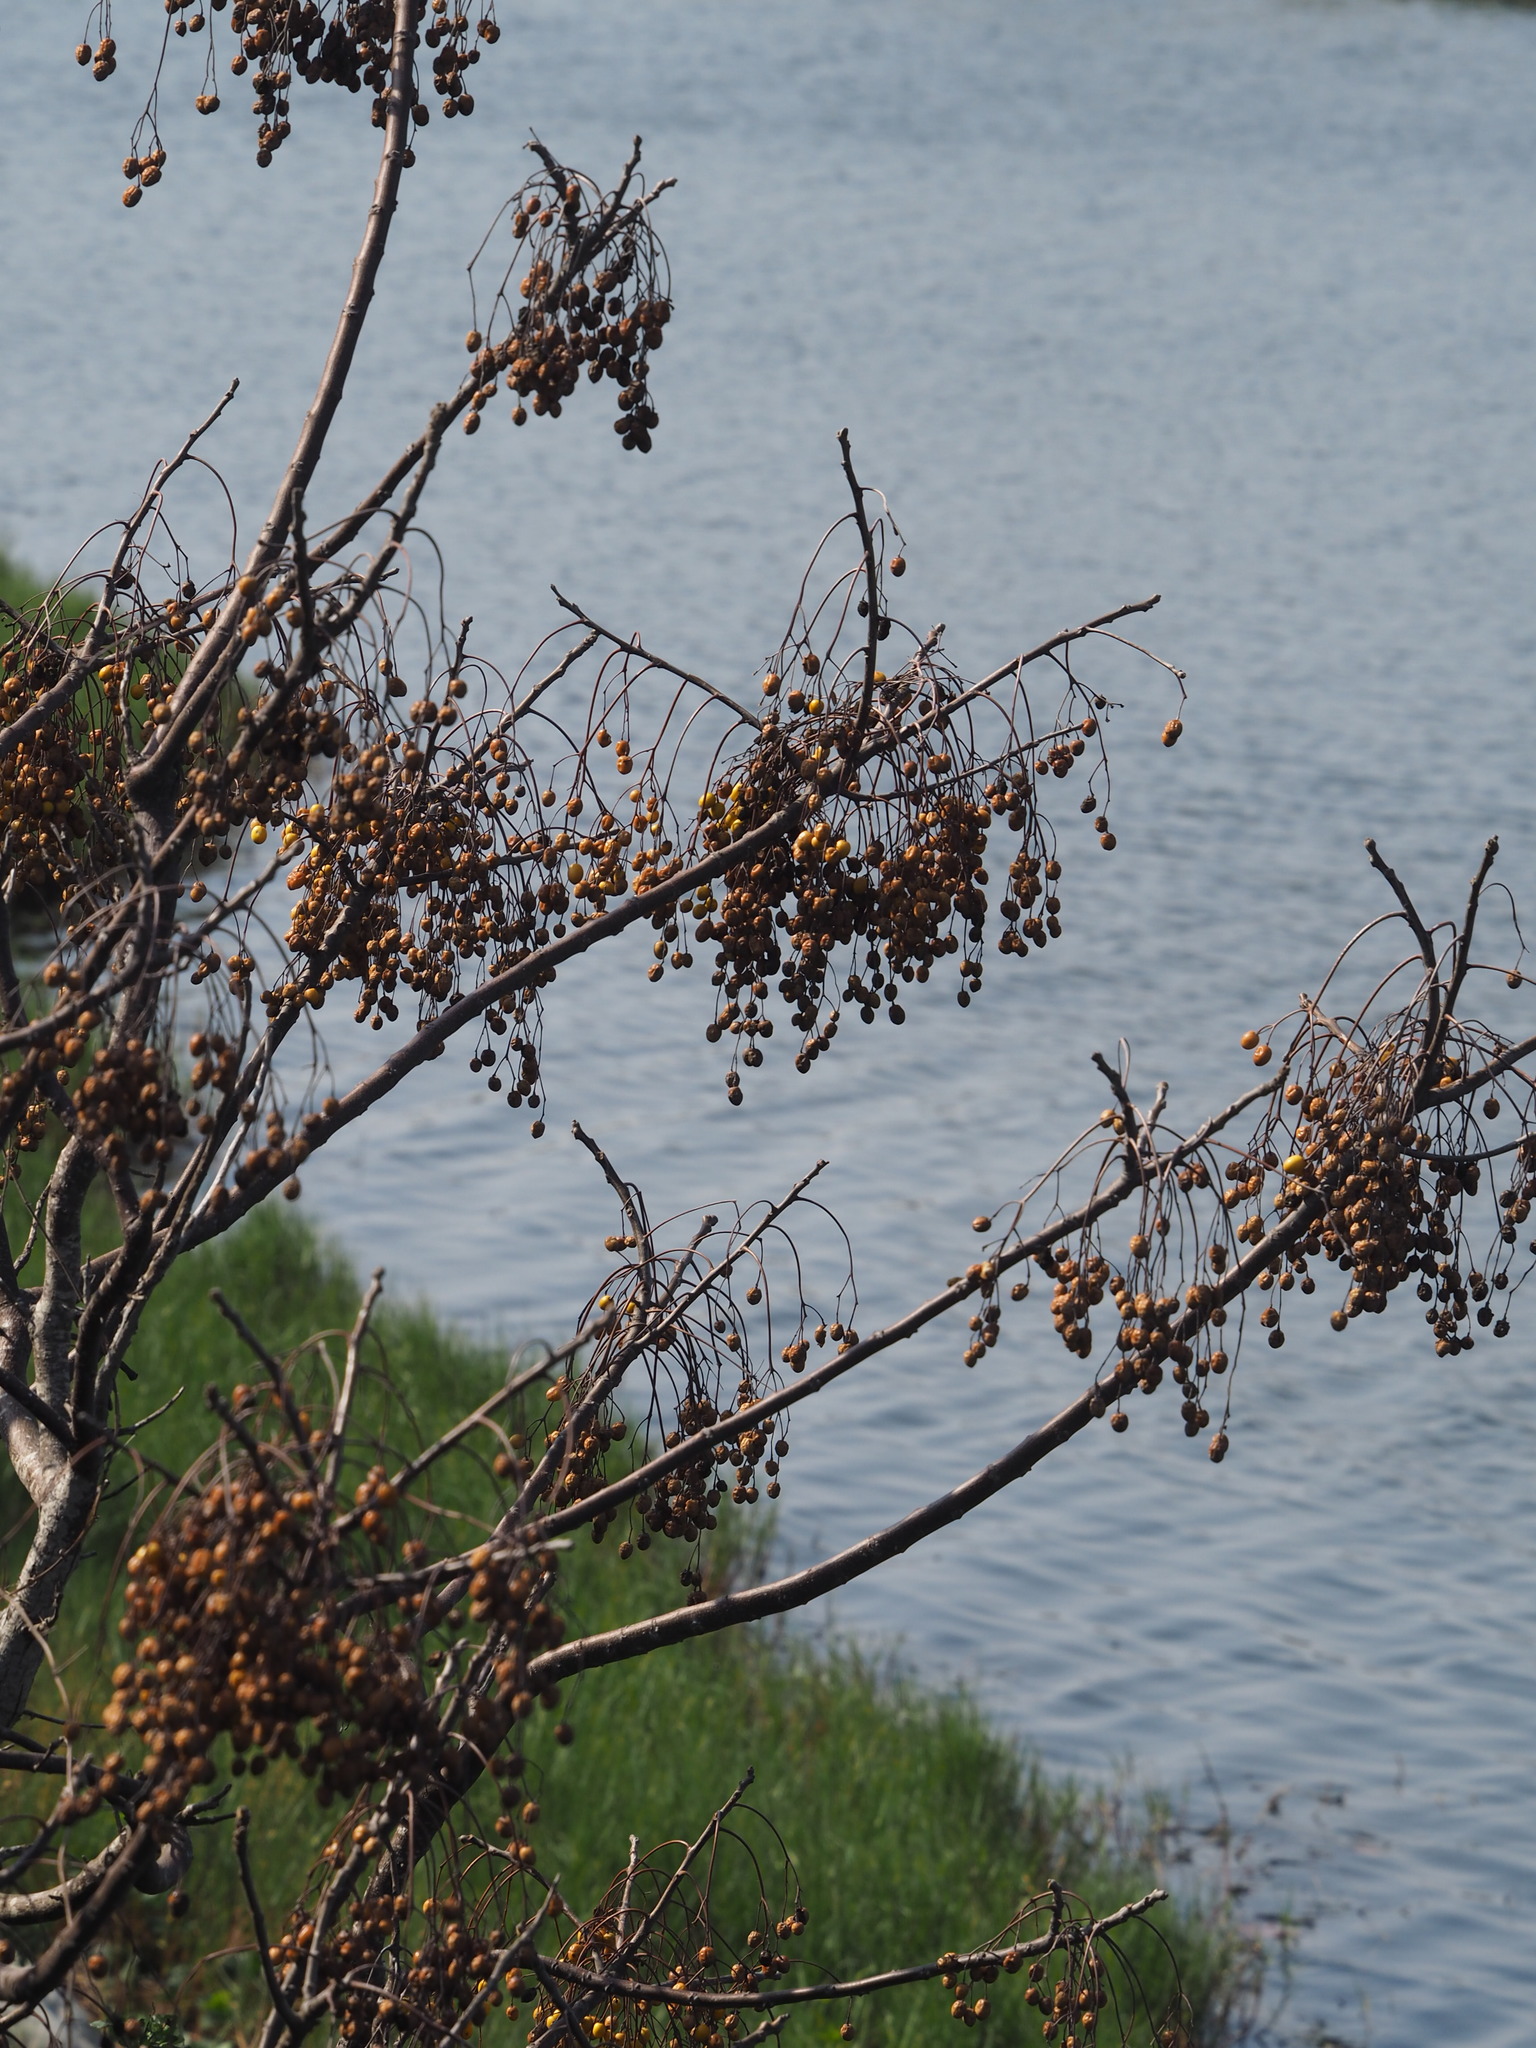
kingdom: Plantae
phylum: Tracheophyta
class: Magnoliopsida
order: Sapindales
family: Meliaceae
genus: Melia
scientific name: Melia azedarach
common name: Chinaberrytree
